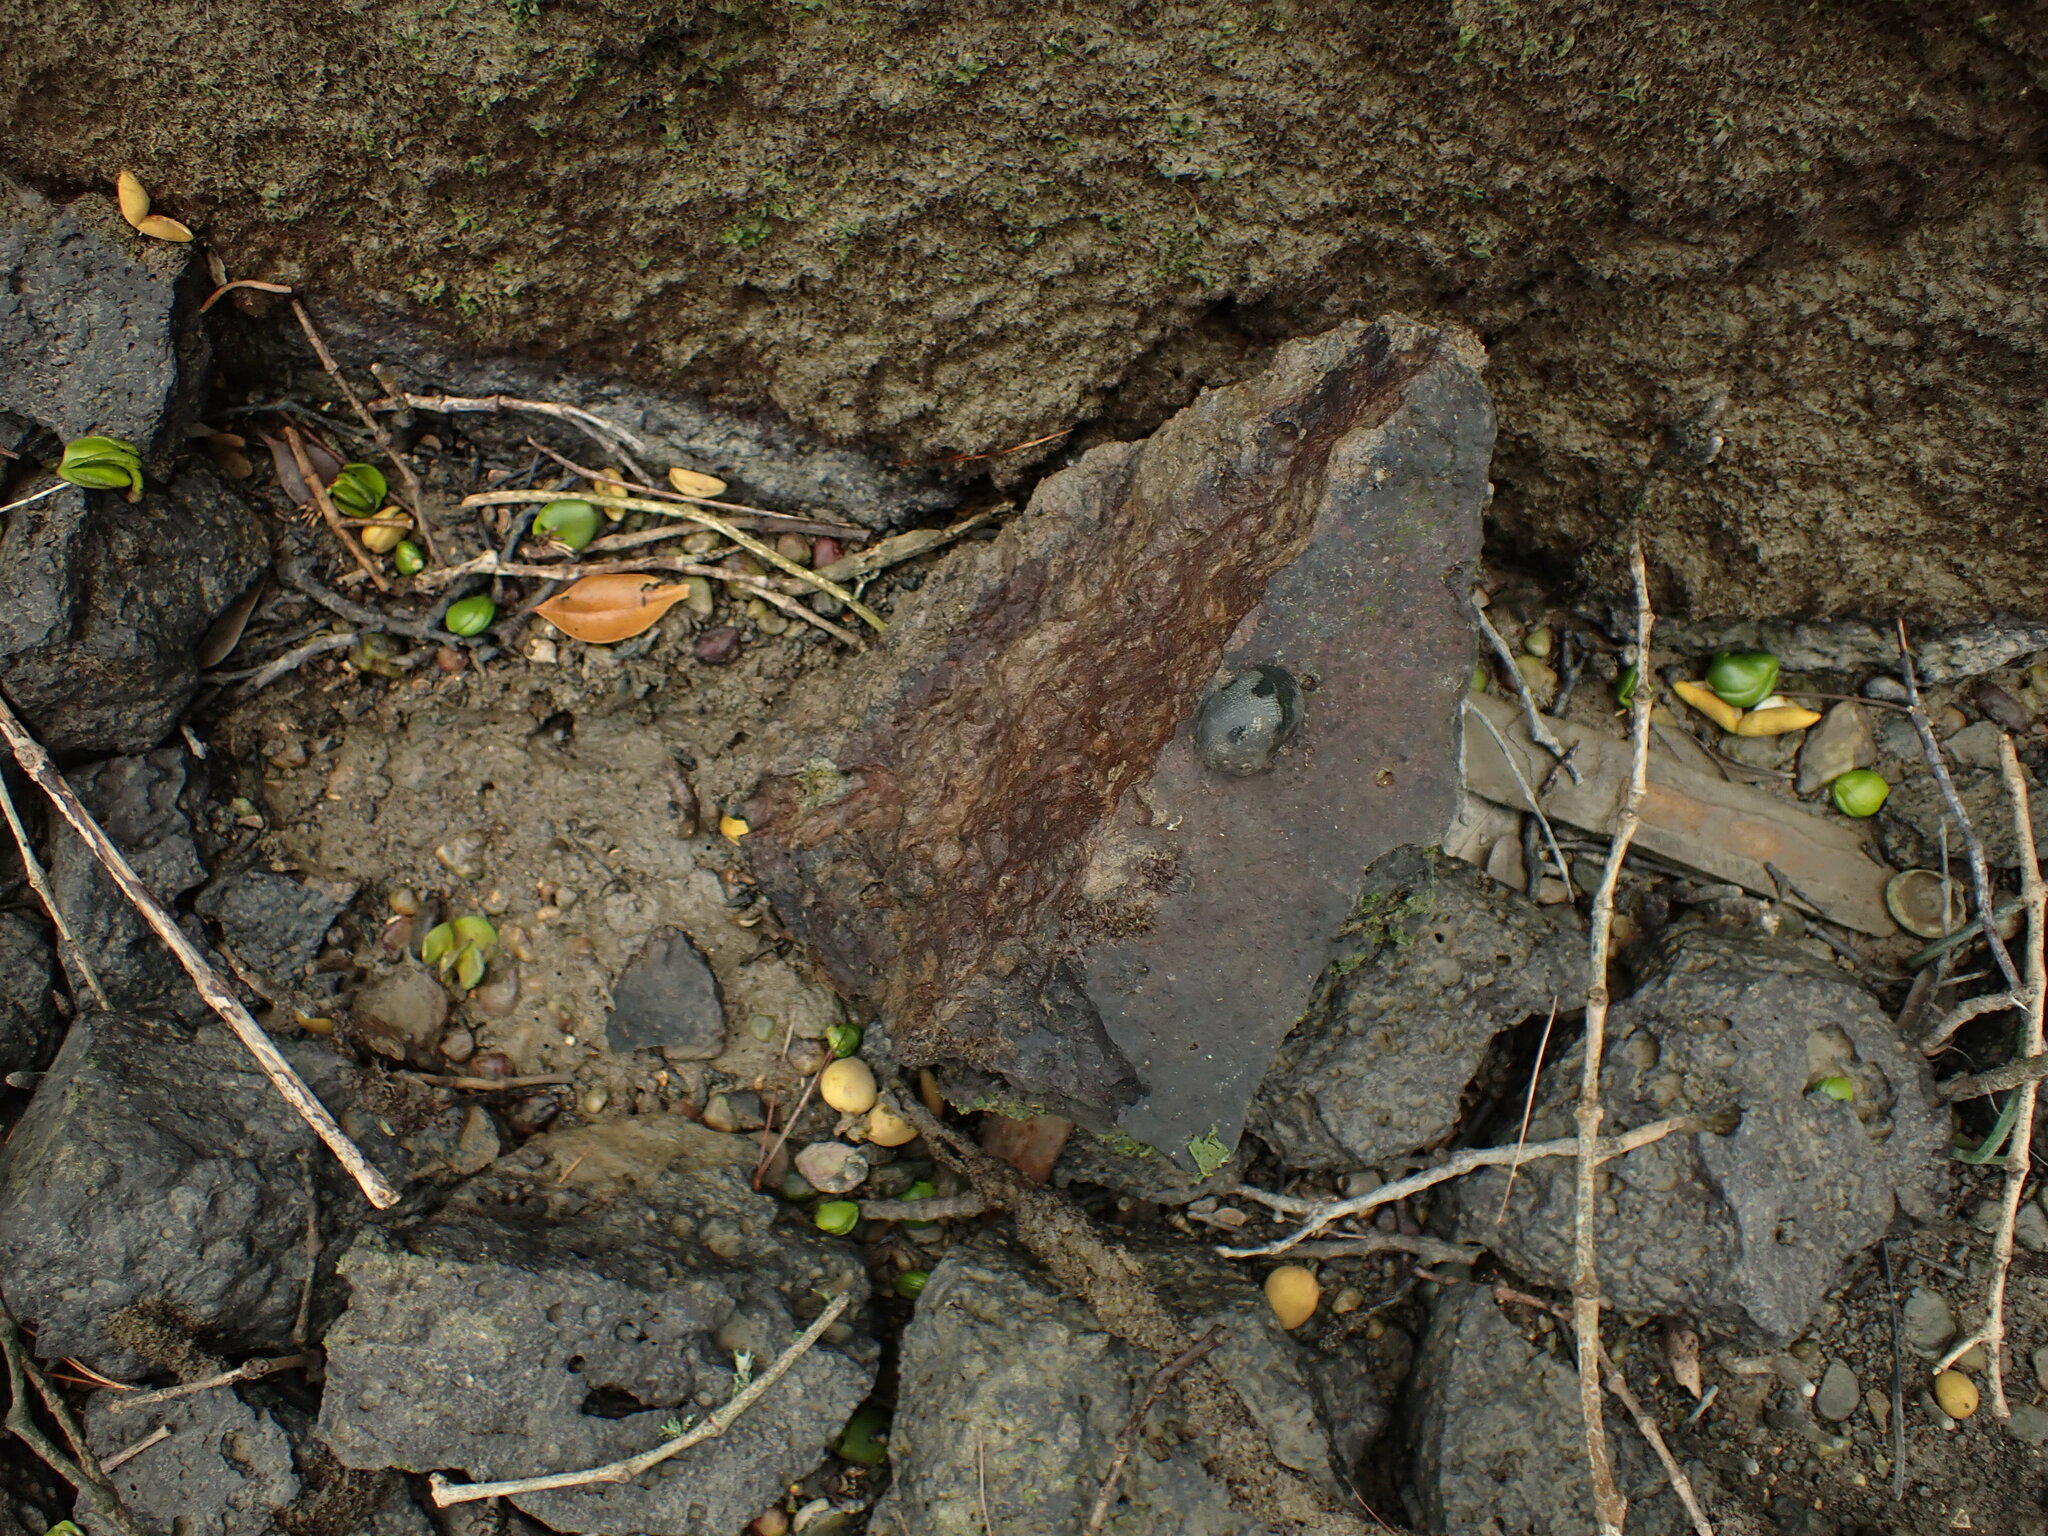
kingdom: Animalia
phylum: Mollusca
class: Gastropoda
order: Cycloneritida
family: Neritidae
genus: Nerita
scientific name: Nerita melanotragus
